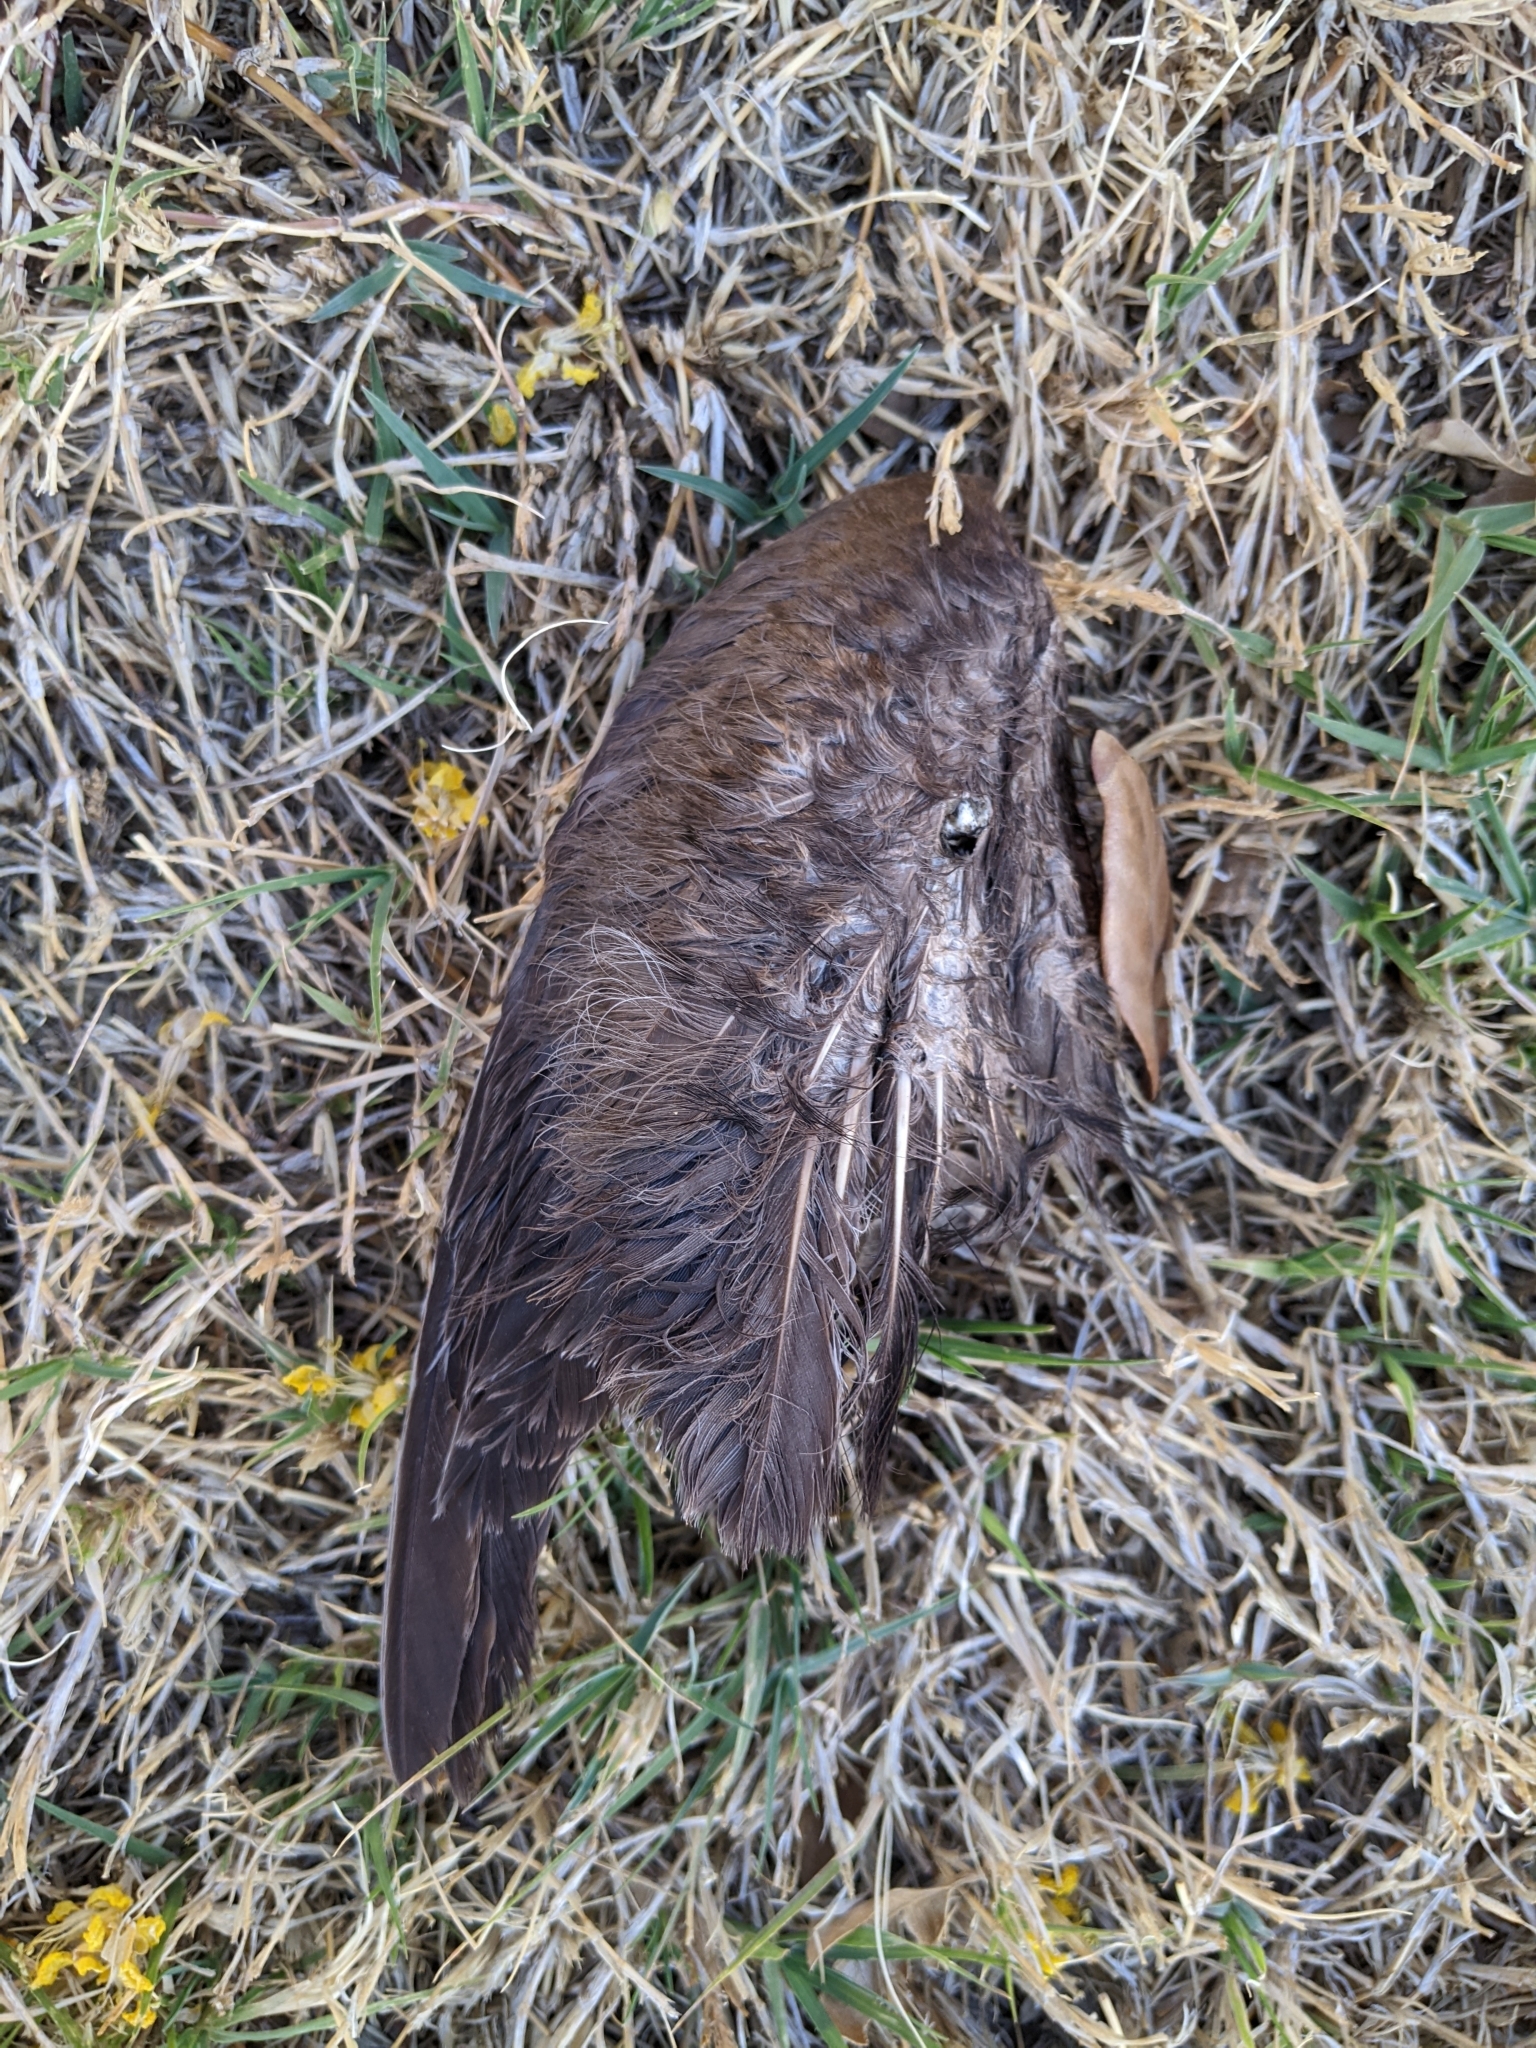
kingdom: Animalia
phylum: Chordata
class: Aves
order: Passeriformes
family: Passerellidae
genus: Melozone
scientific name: Melozone aberti
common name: Abert's towhee
